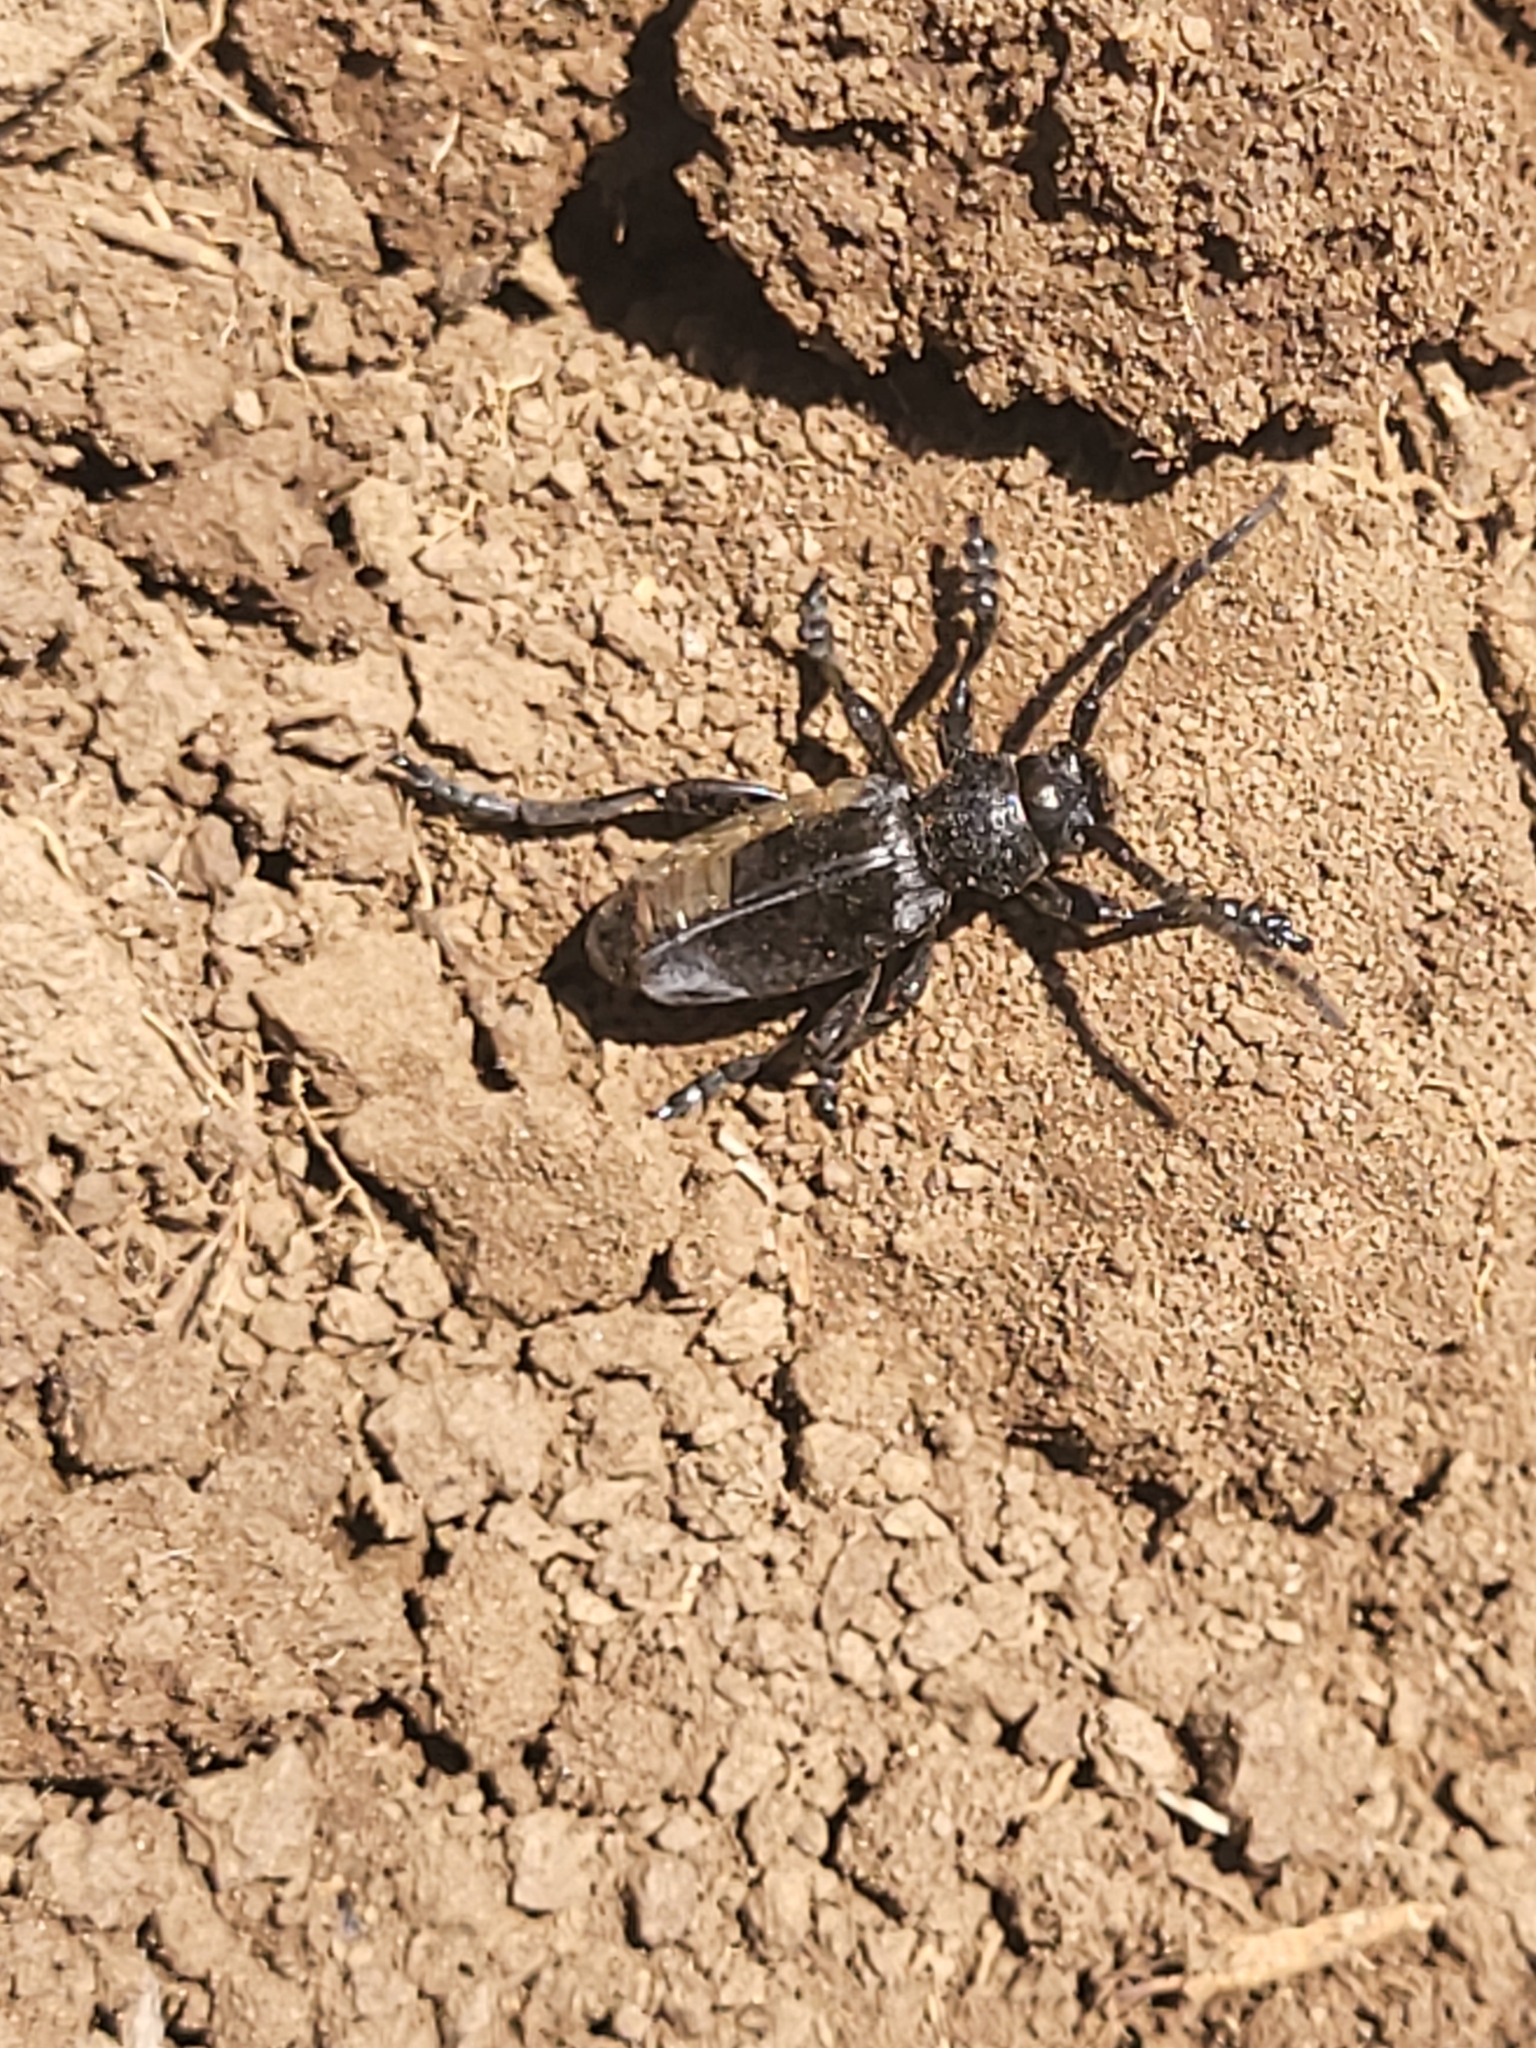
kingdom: Animalia
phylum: Arthropoda
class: Insecta
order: Coleoptera
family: Cerambycidae
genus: Dorcadion
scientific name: Dorcadion dimidiatum
